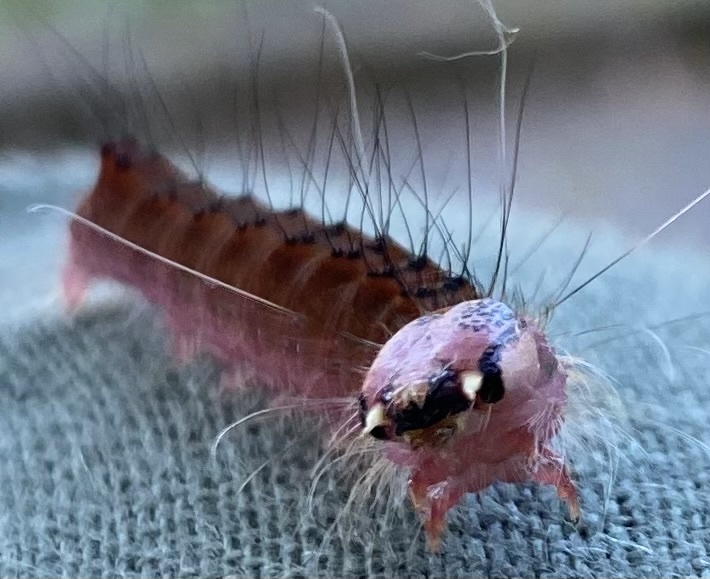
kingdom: Animalia
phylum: Arthropoda
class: Insecta
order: Lepidoptera
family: Noctuidae
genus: Acronicta
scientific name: Acronicta superans
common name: Splendid dagger
